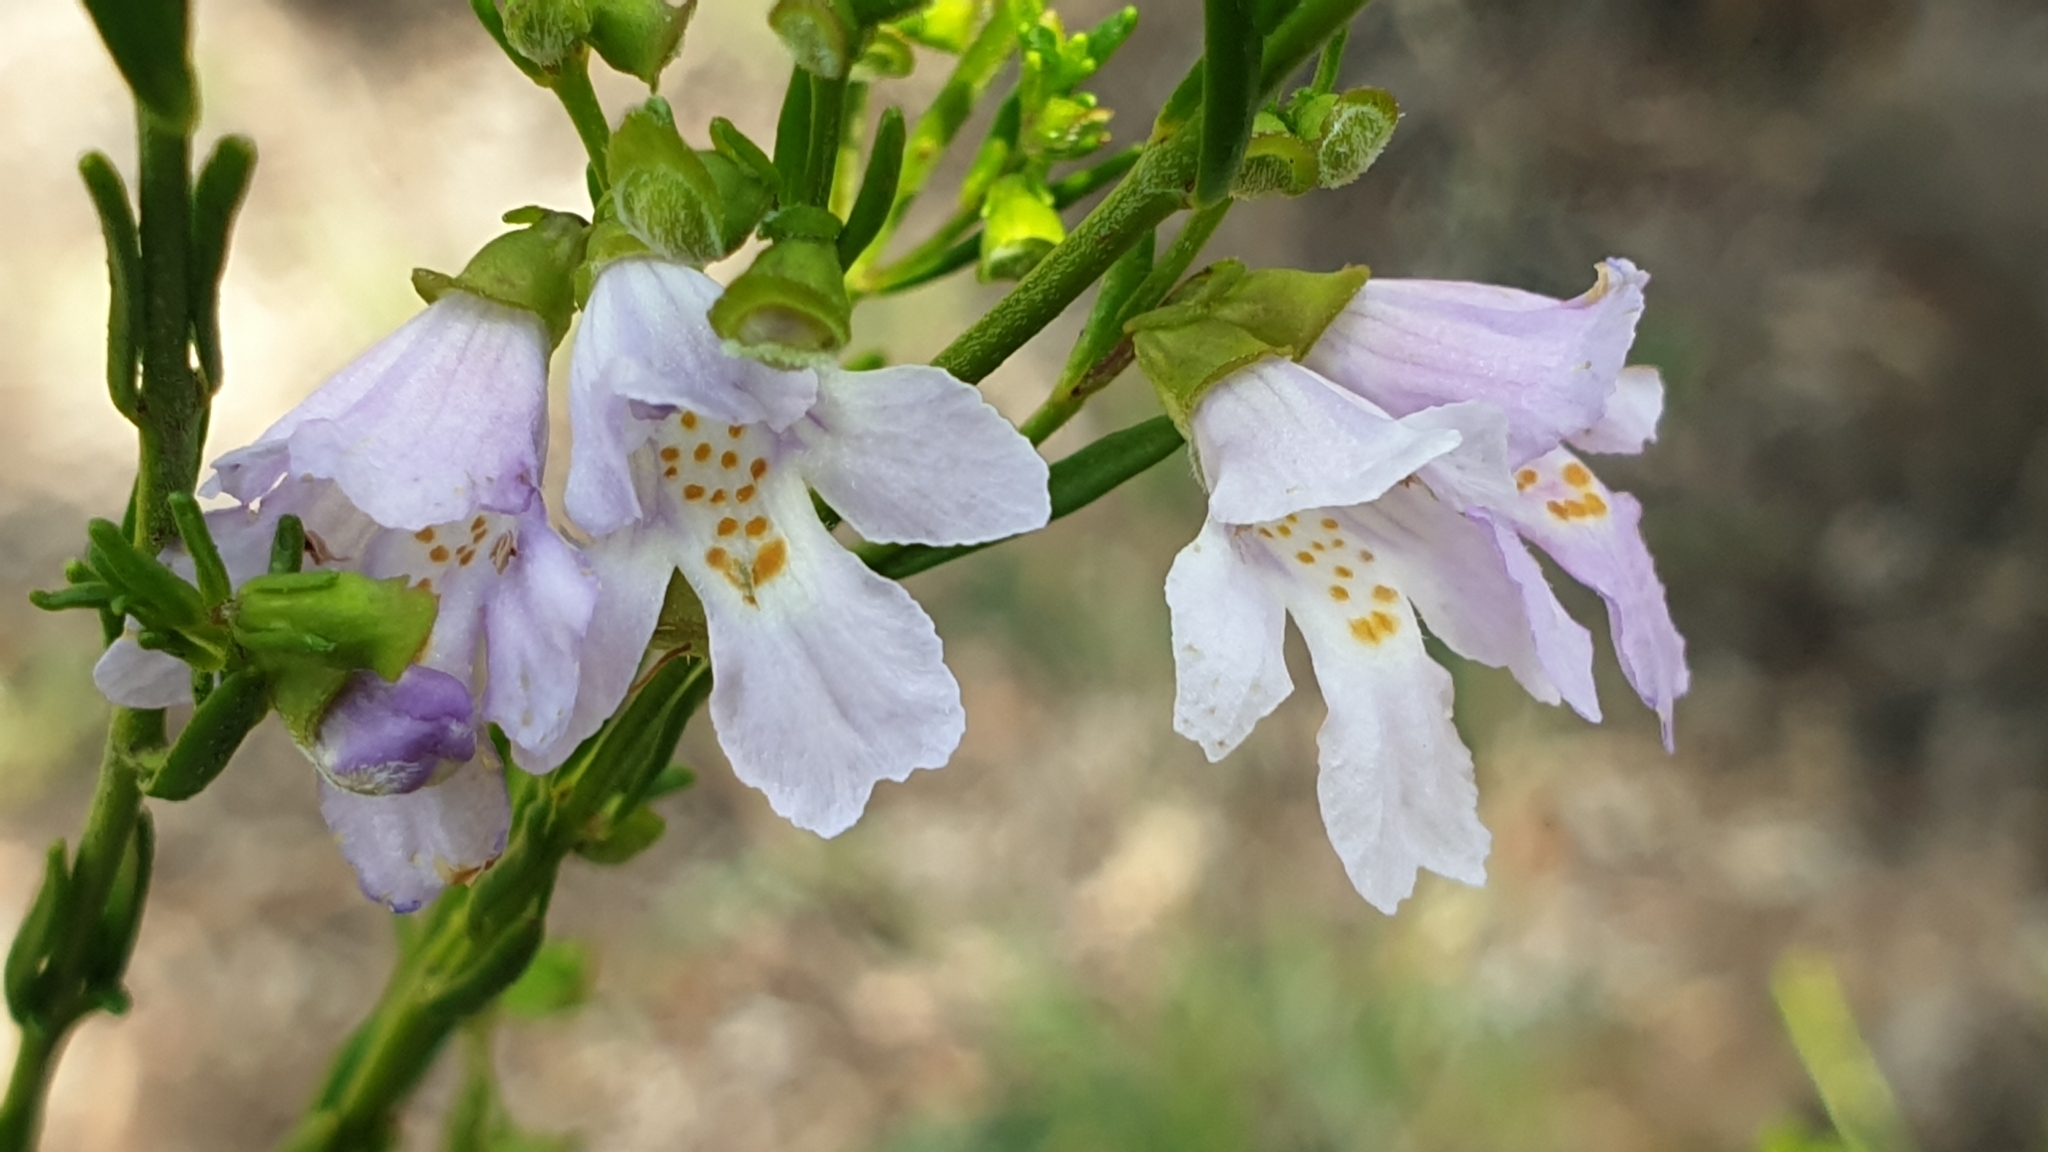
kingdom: Plantae
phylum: Tracheophyta
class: Magnoliopsida
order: Lamiales
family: Lamiaceae
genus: Prostanthera
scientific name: Prostanthera nivea
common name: Snowy mintbush
